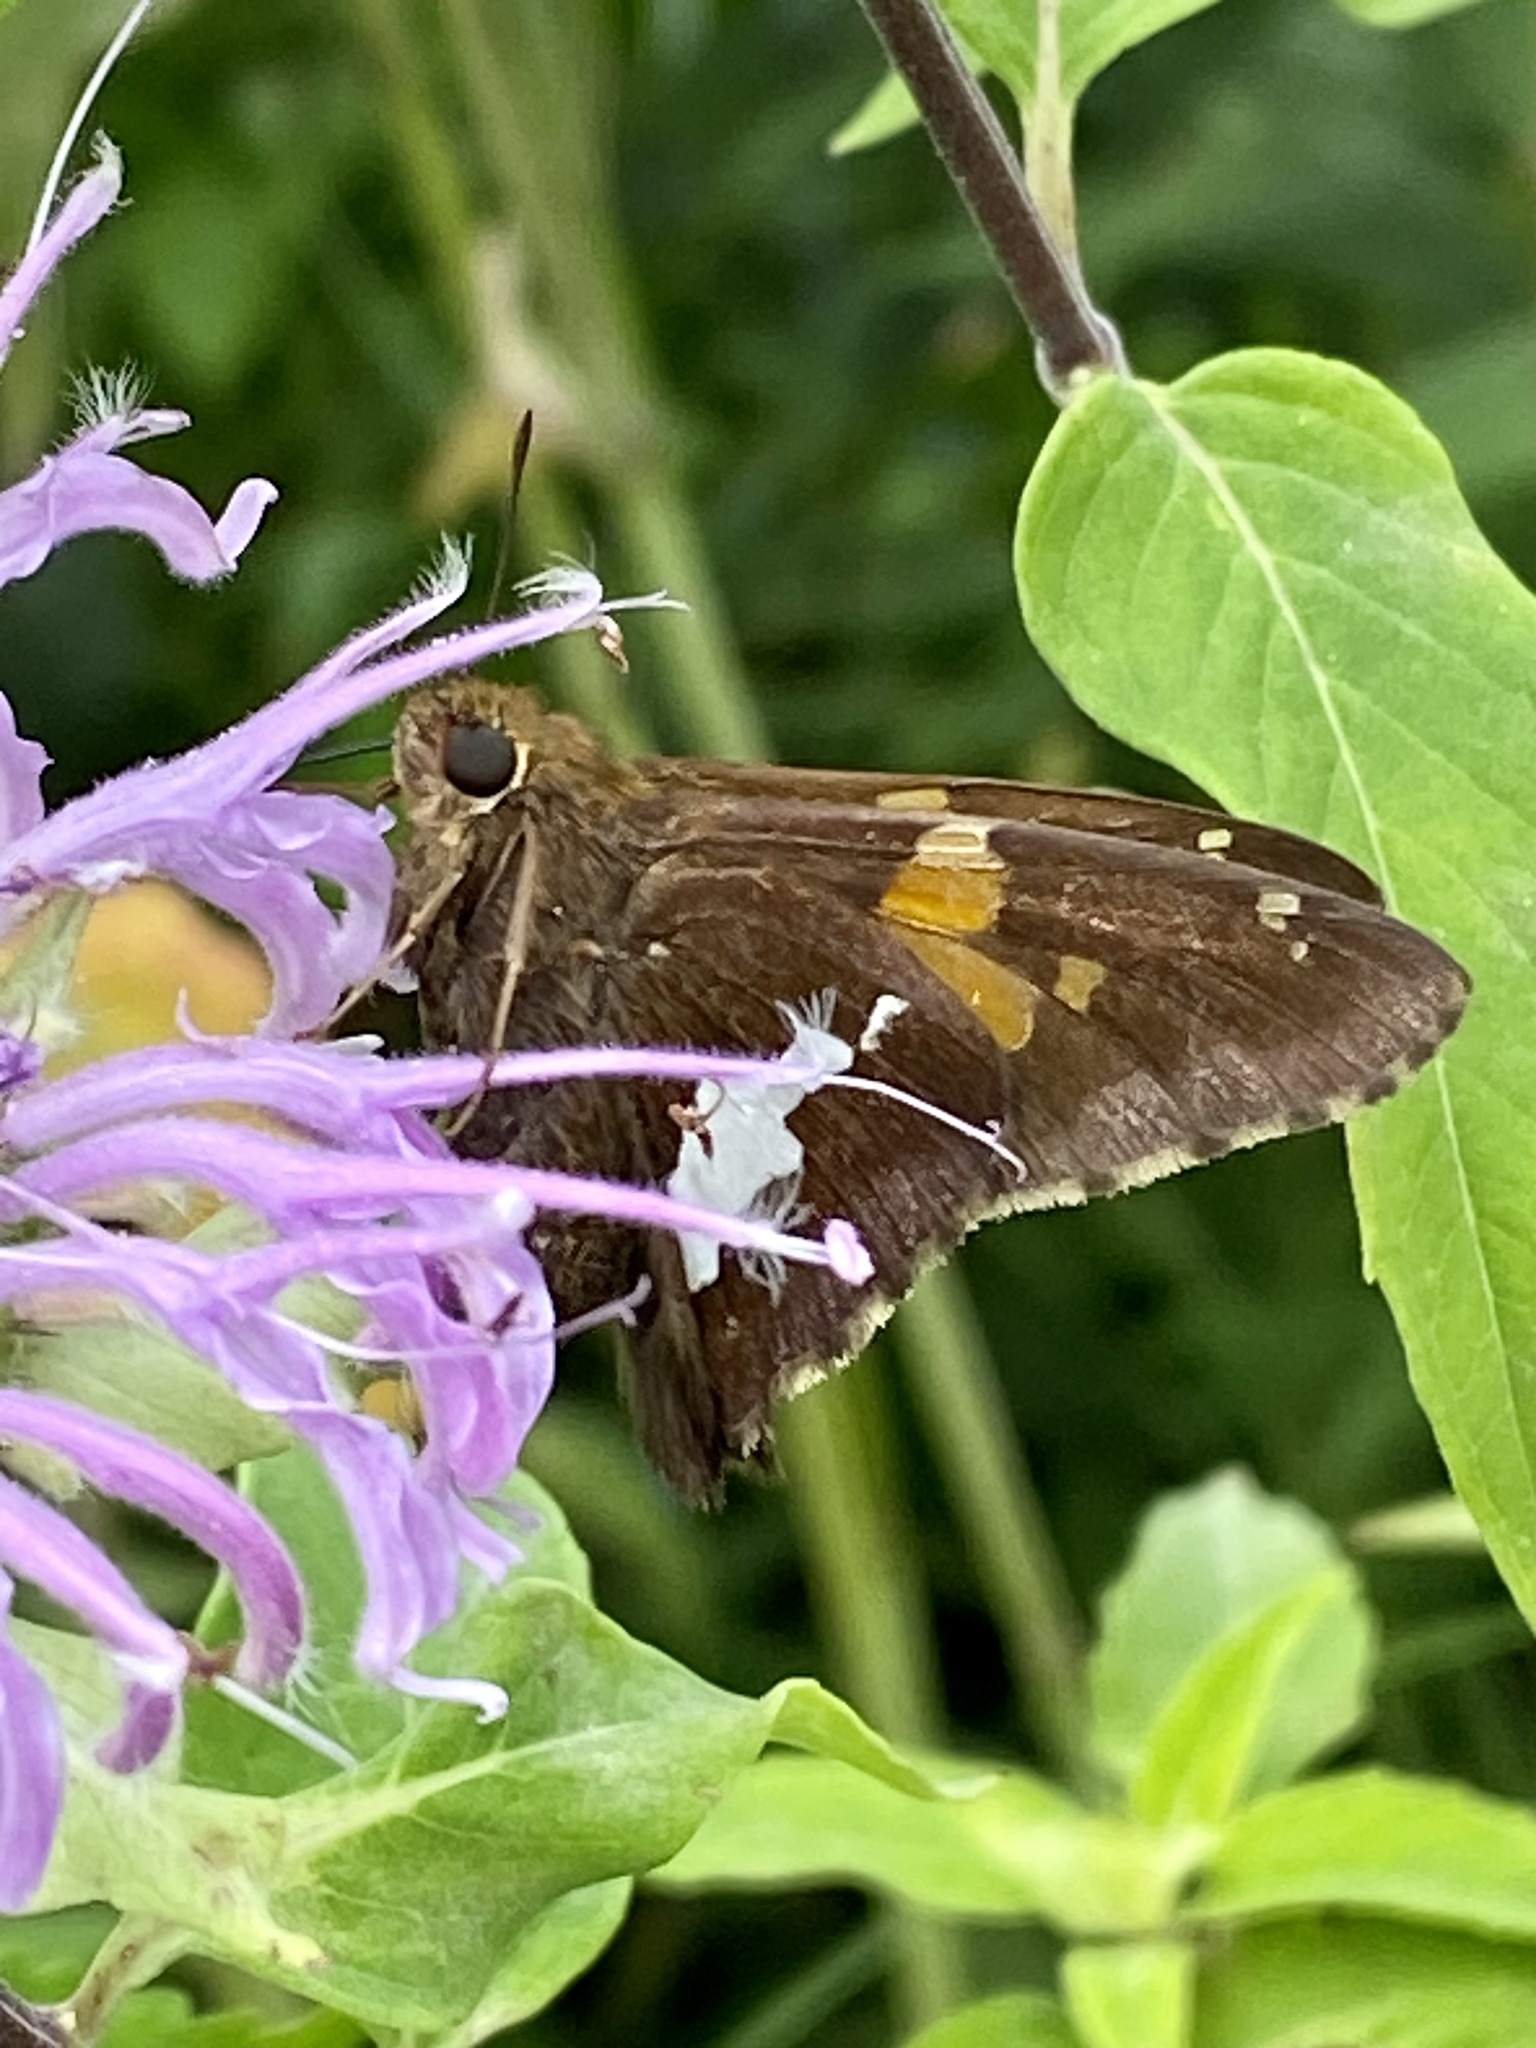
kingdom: Animalia
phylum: Arthropoda
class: Insecta
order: Lepidoptera
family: Hesperiidae
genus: Epargyreus
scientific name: Epargyreus clarus
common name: Silver-spotted skipper
